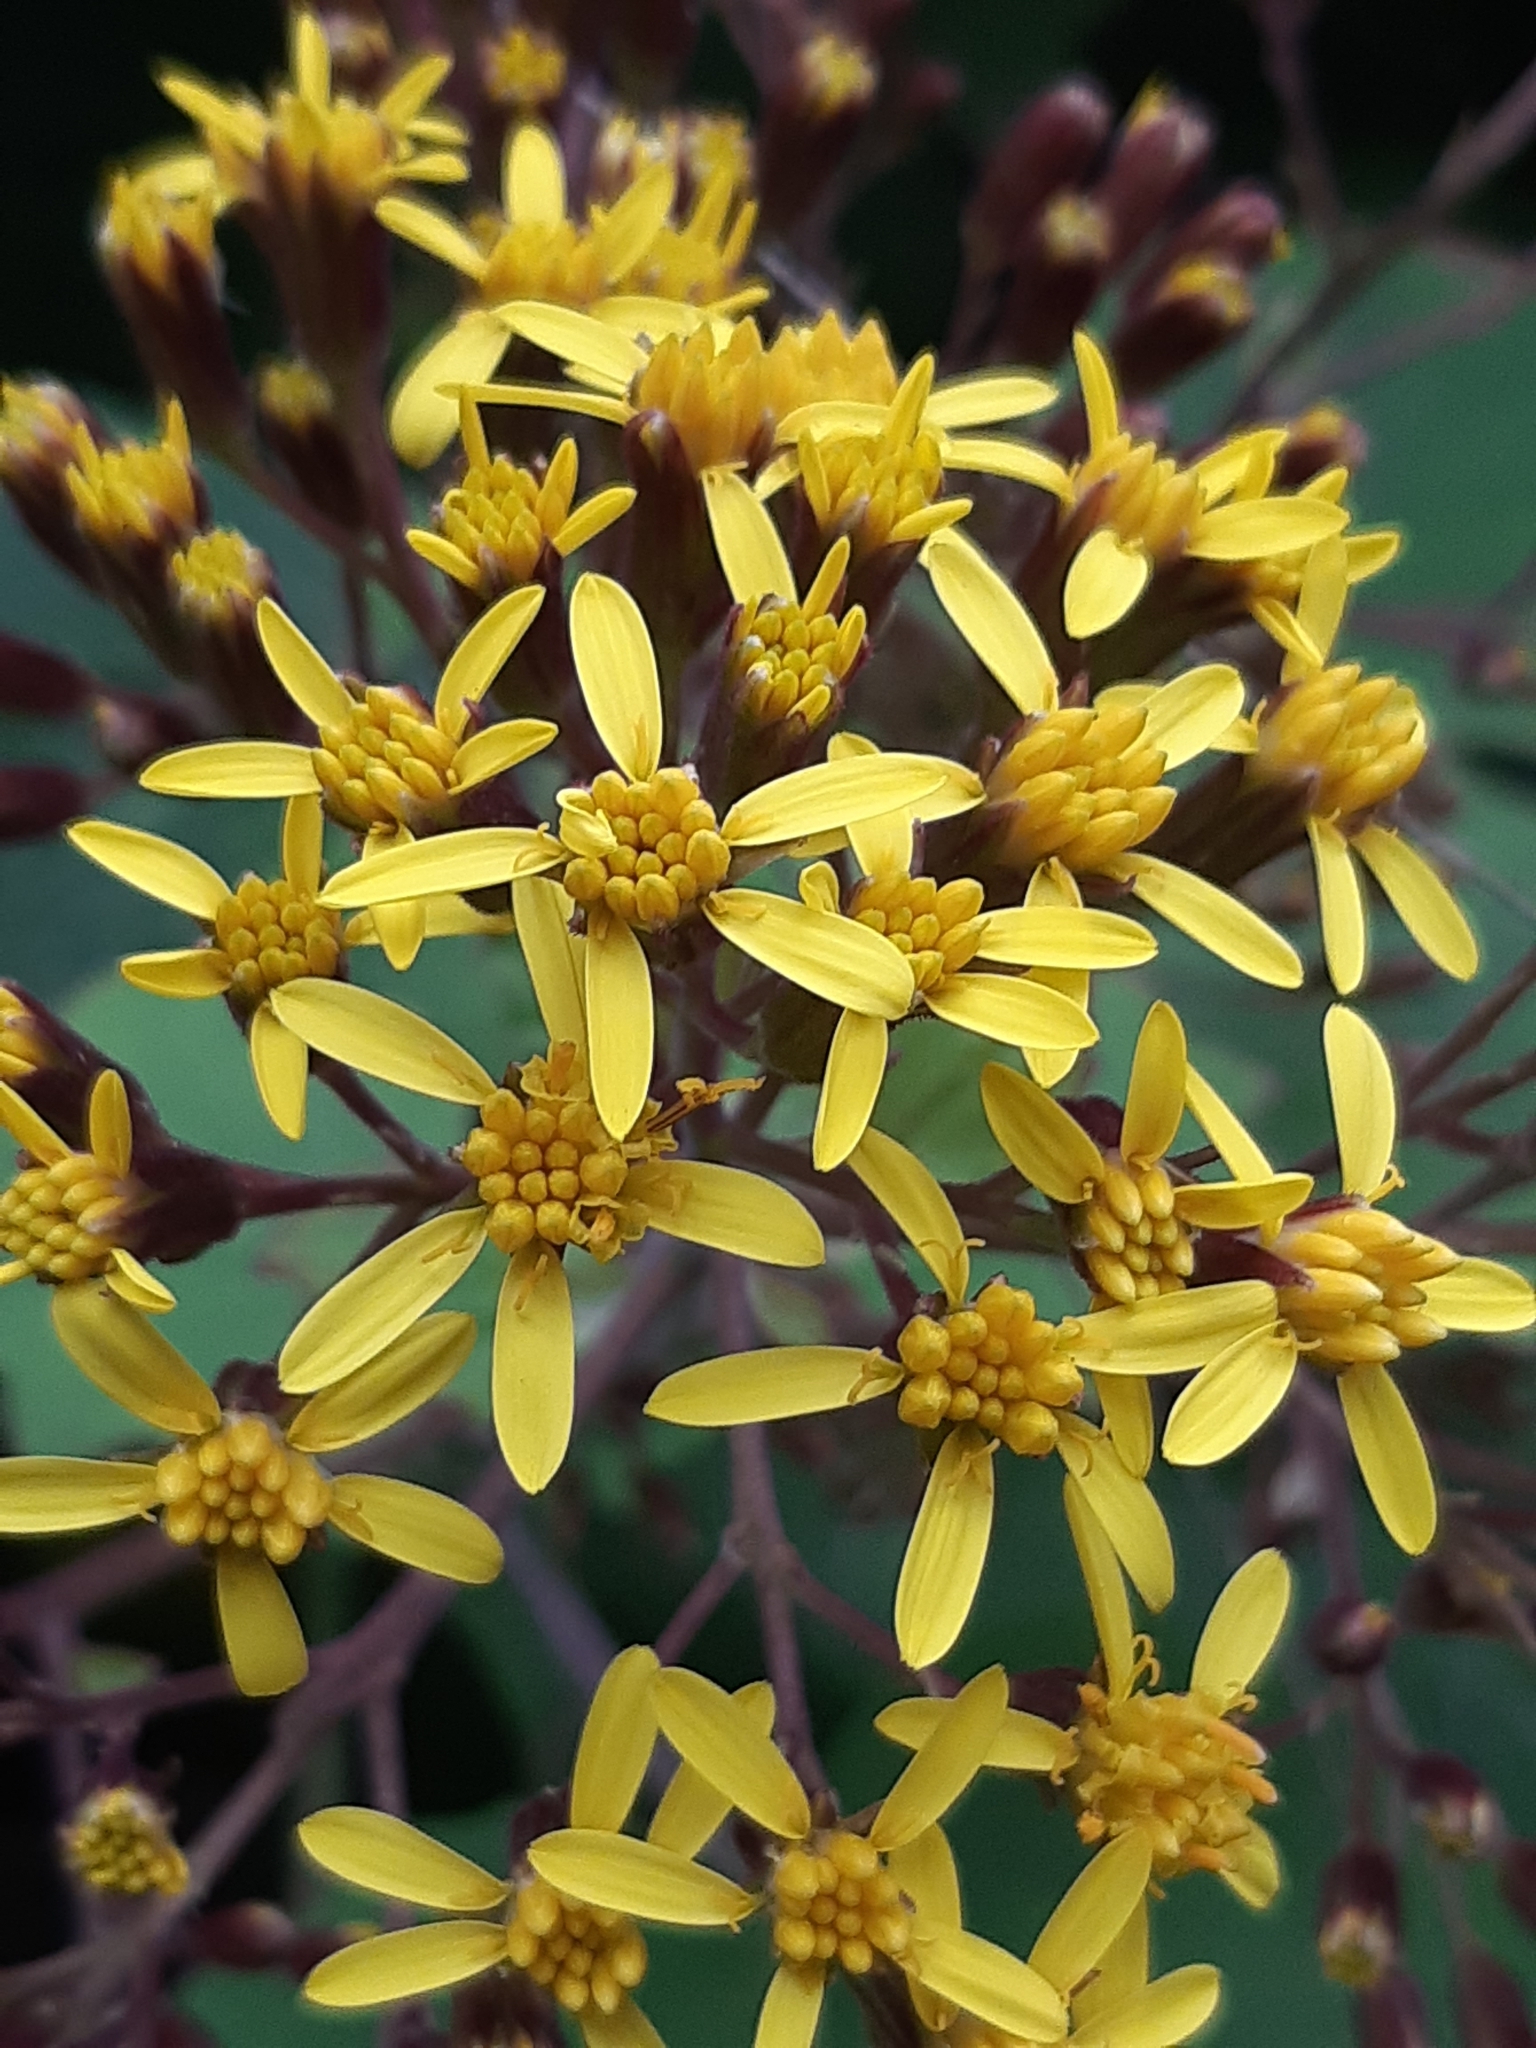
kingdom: Plantae
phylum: Tracheophyta
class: Magnoliopsida
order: Asterales
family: Asteraceae
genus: Roldana
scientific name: Roldana petasitis
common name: California-geranium
